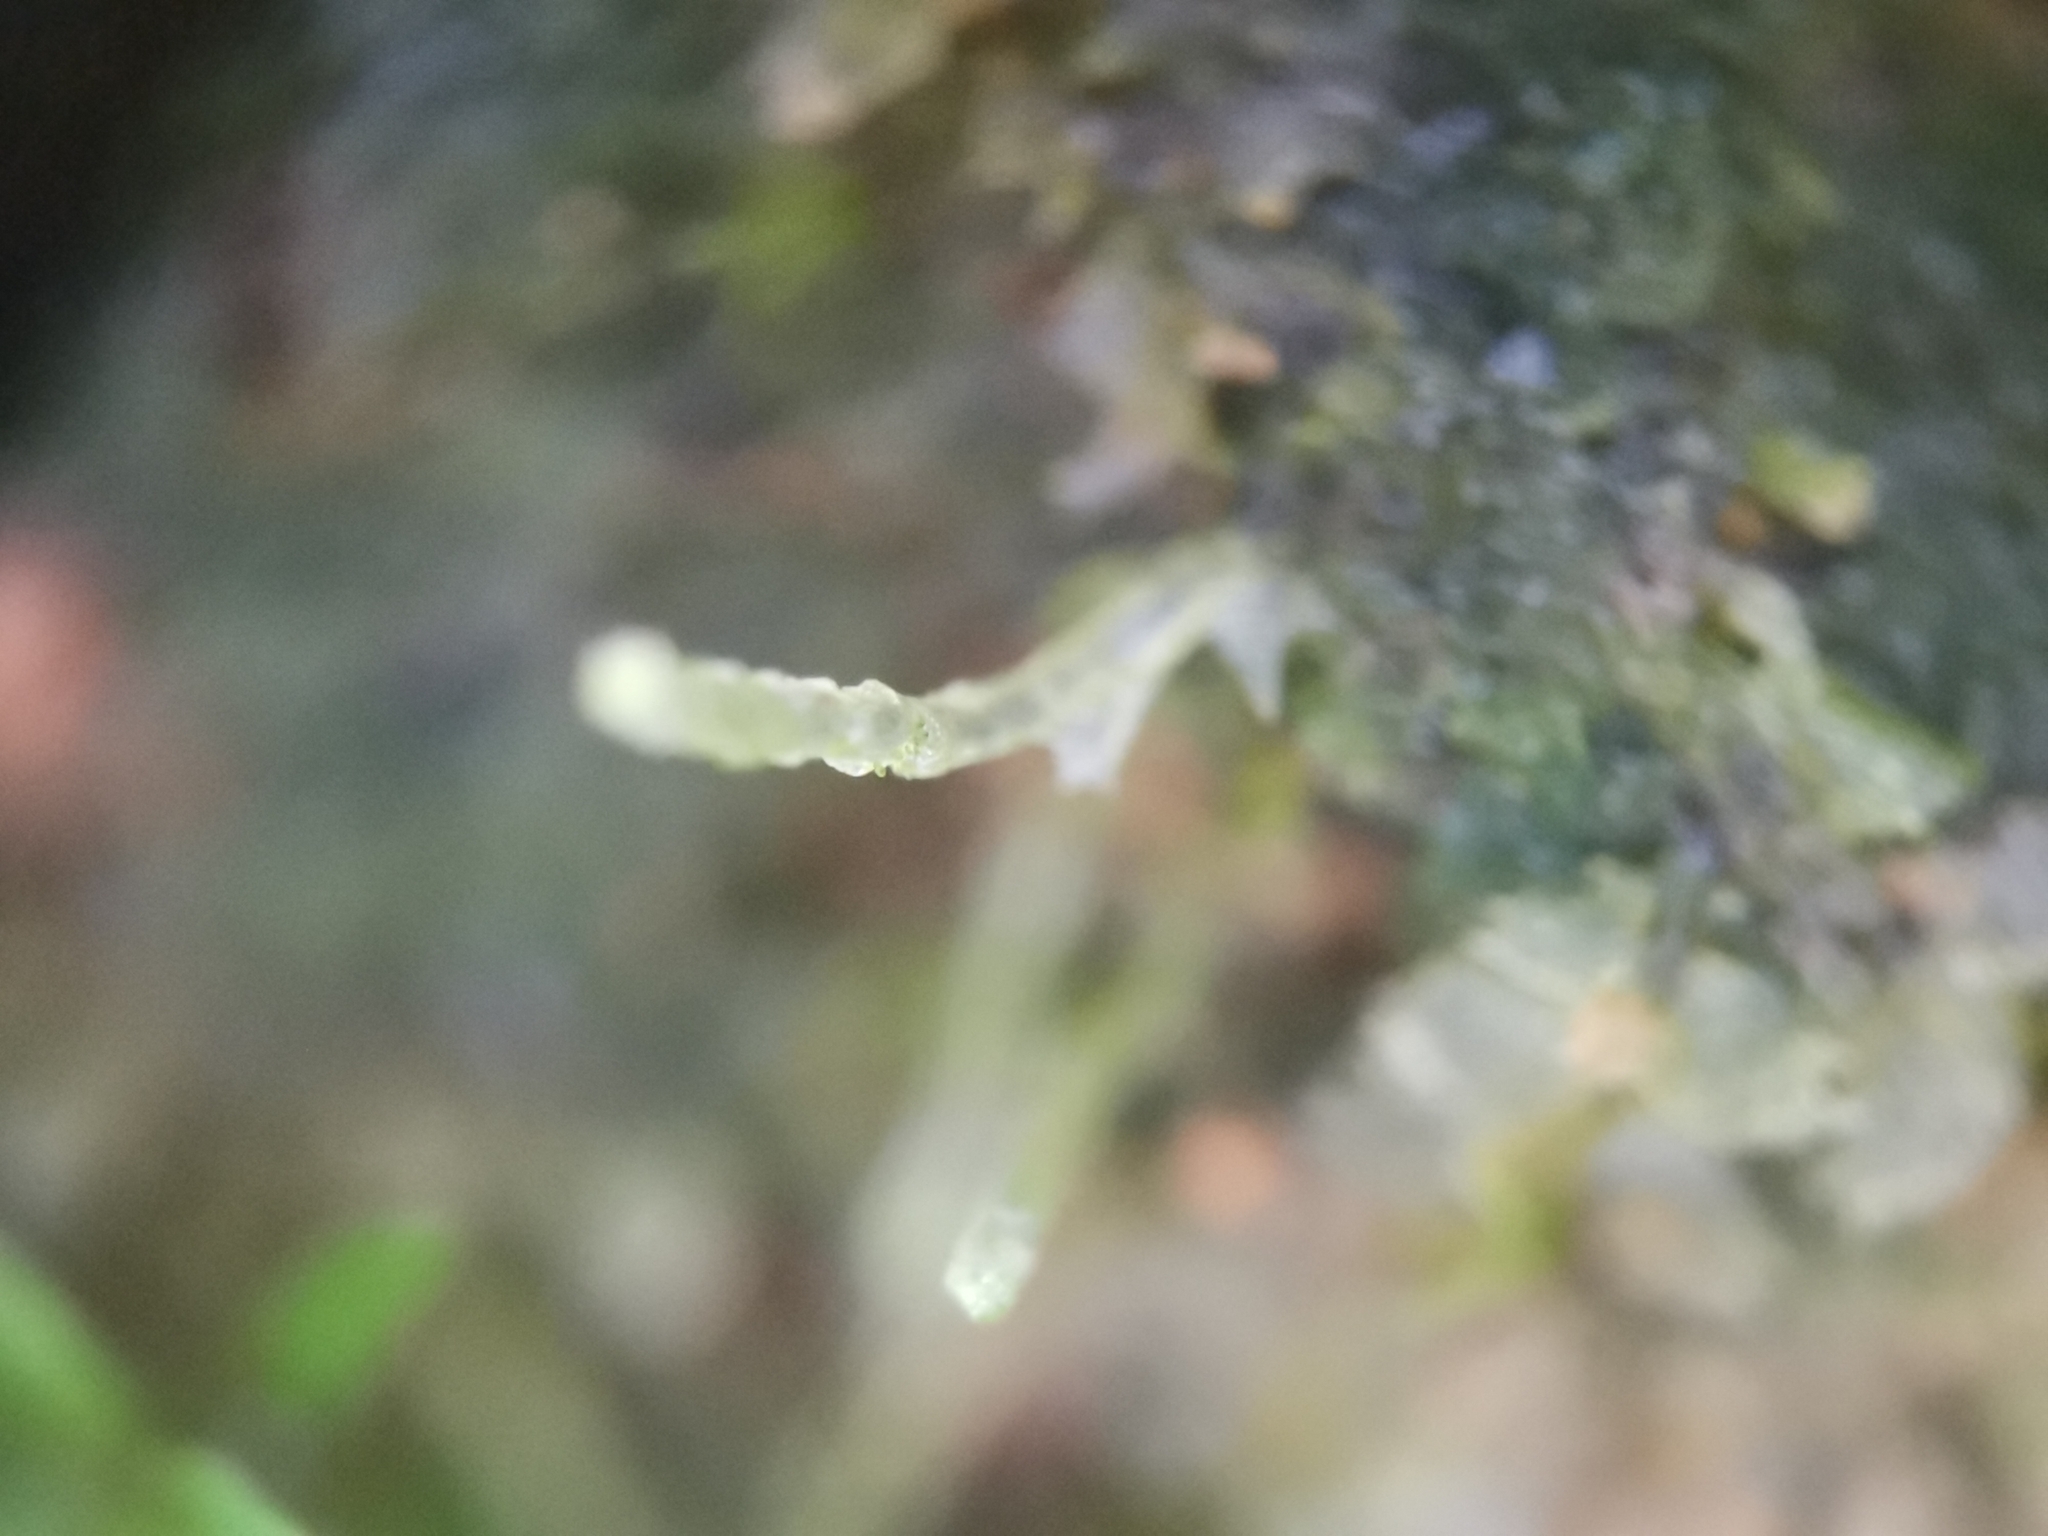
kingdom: Plantae
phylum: Marchantiophyta
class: Jungermanniopsida
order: Jungermanniales
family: Calypogeiaceae
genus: Asperifolia
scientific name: Asperifolia arguta
